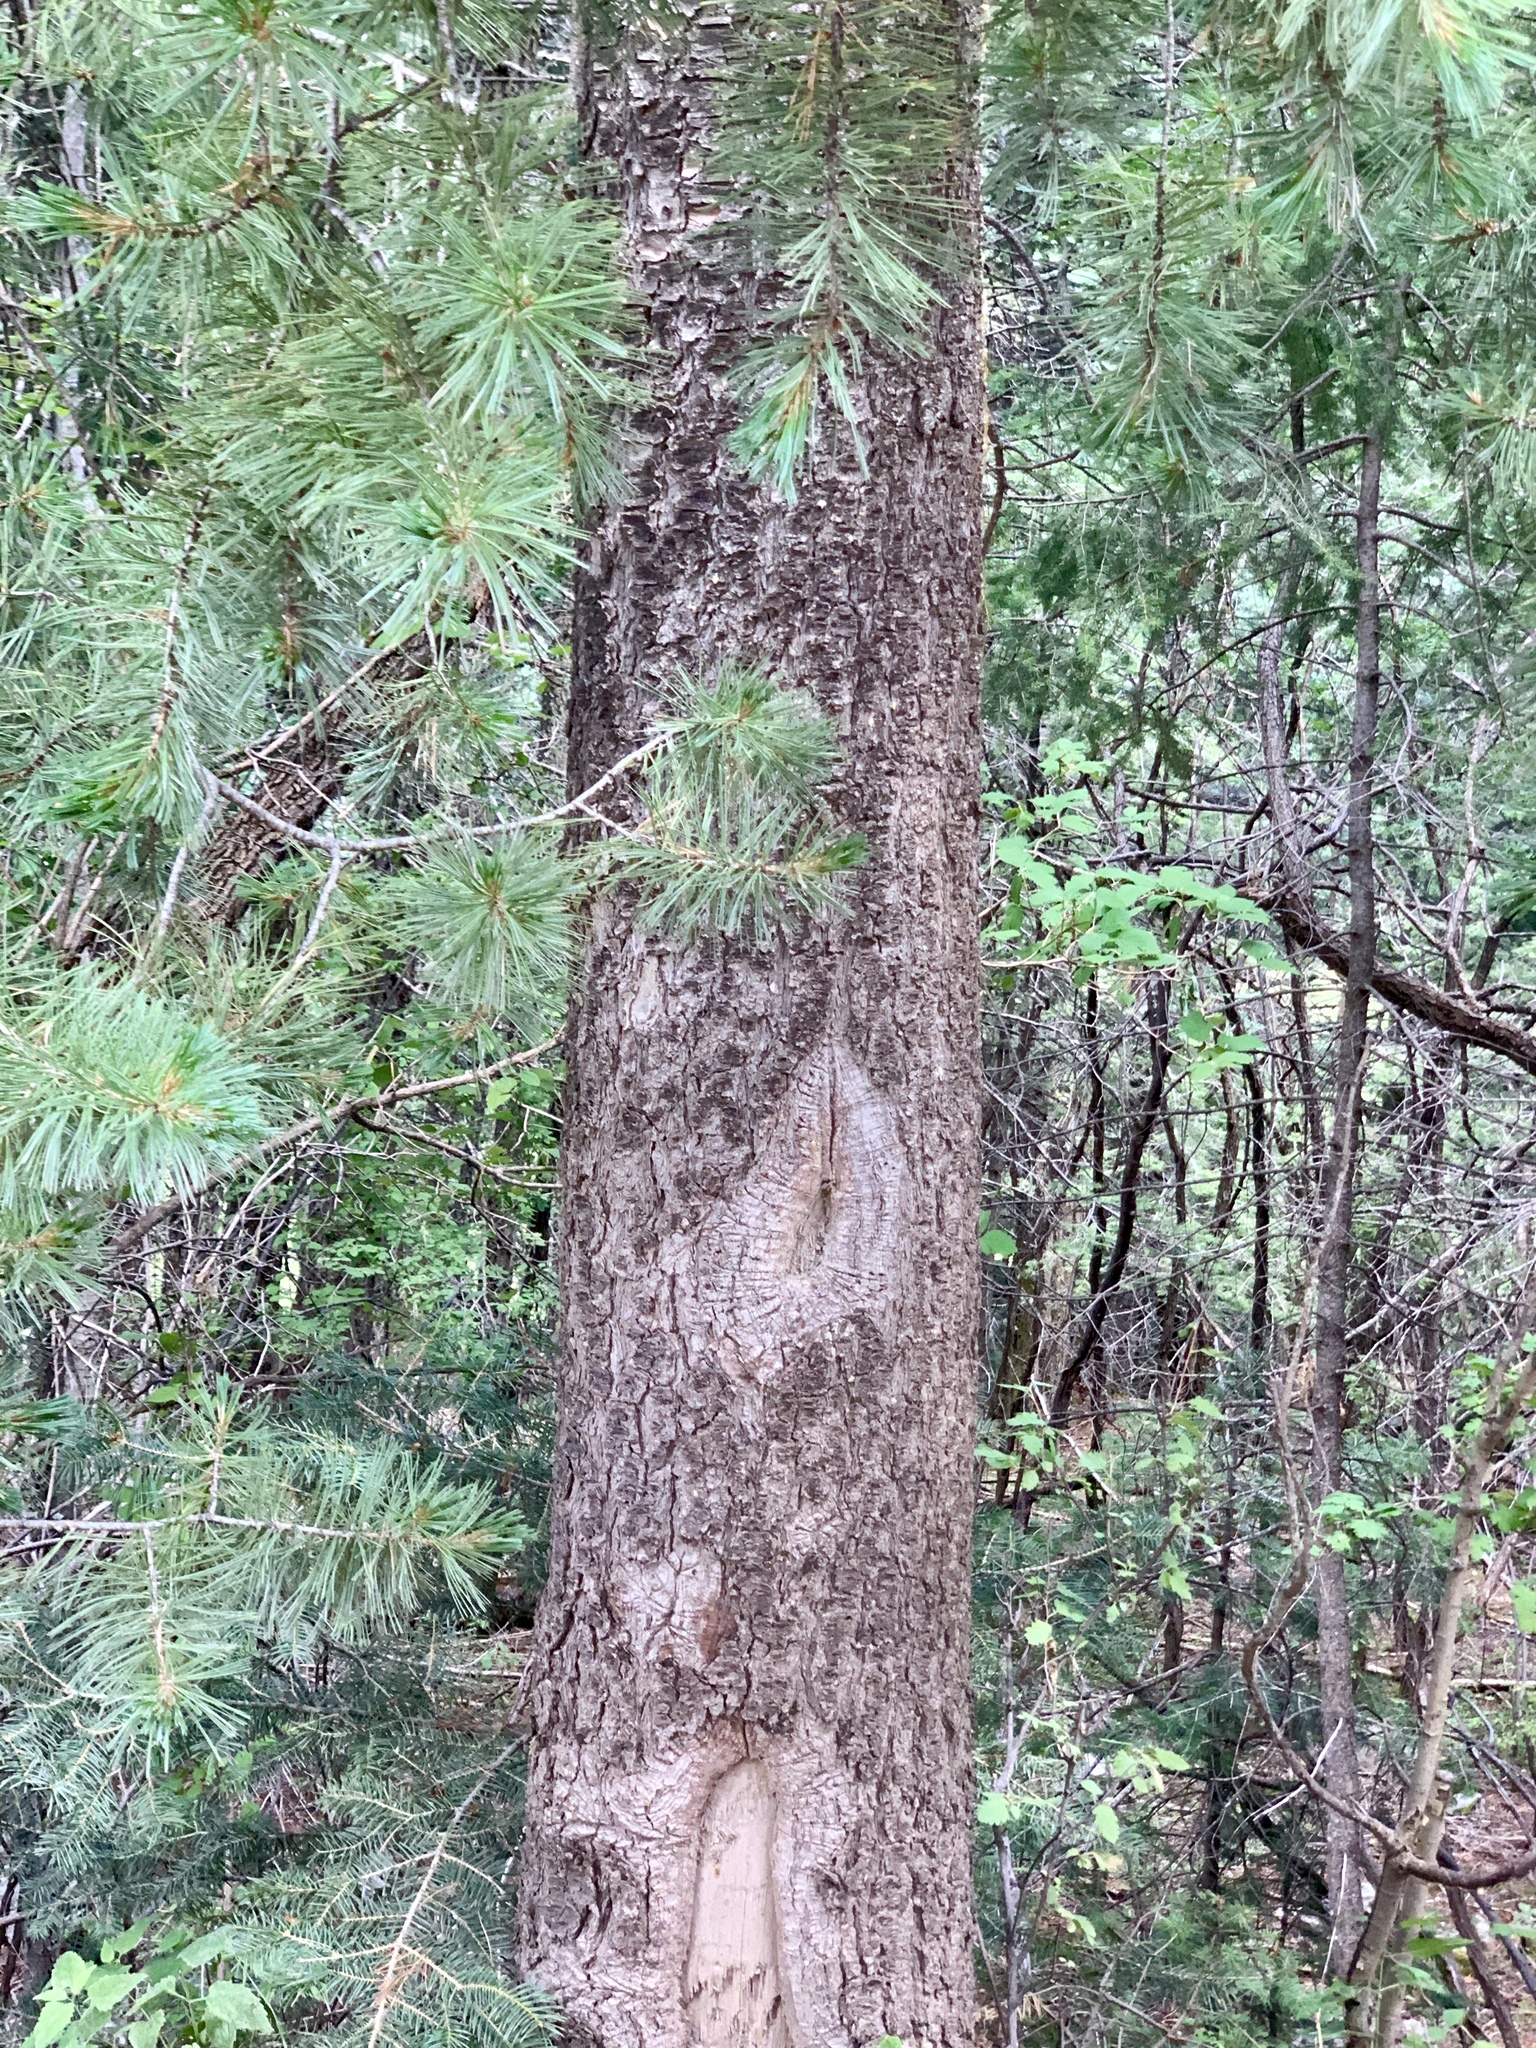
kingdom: Plantae
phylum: Tracheophyta
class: Pinopsida
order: Pinales
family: Pinaceae
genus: Pinus
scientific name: Pinus strobiformis
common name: Southwestern white pine
